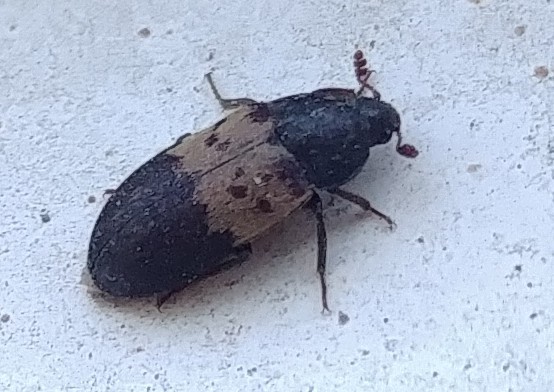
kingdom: Animalia
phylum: Arthropoda
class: Insecta
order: Coleoptera
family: Dermestidae
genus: Dermestes
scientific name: Dermestes lardarius
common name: Larder beetle
